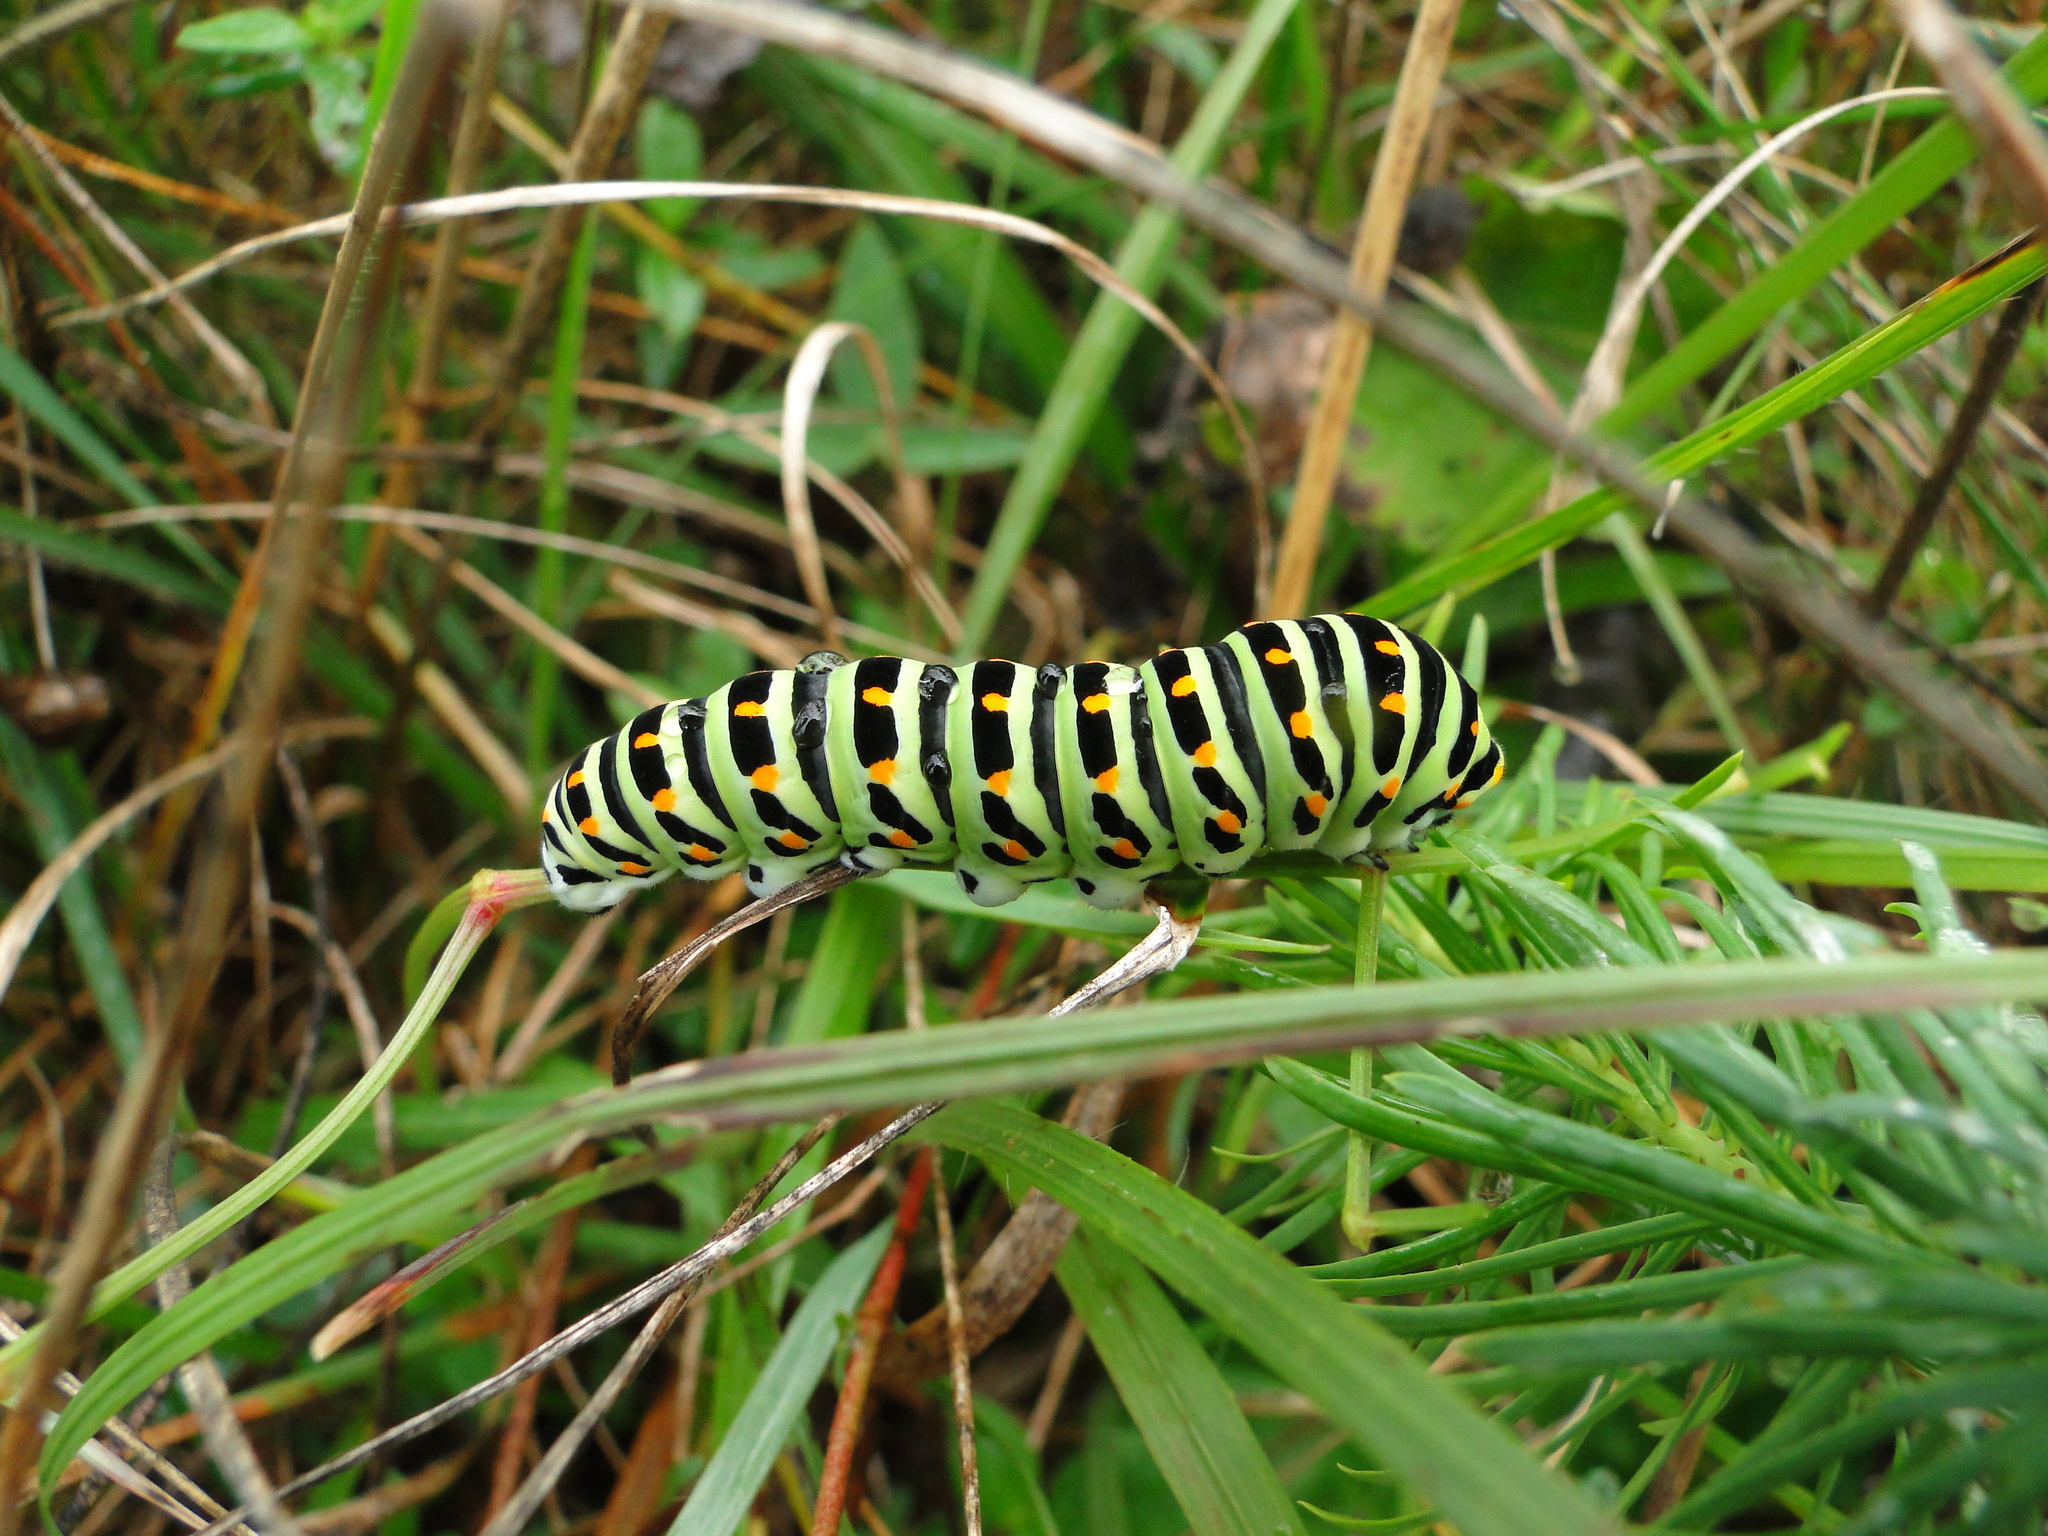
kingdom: Animalia
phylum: Arthropoda
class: Insecta
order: Lepidoptera
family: Papilionidae
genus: Papilio
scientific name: Papilio machaon
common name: Swallowtail
